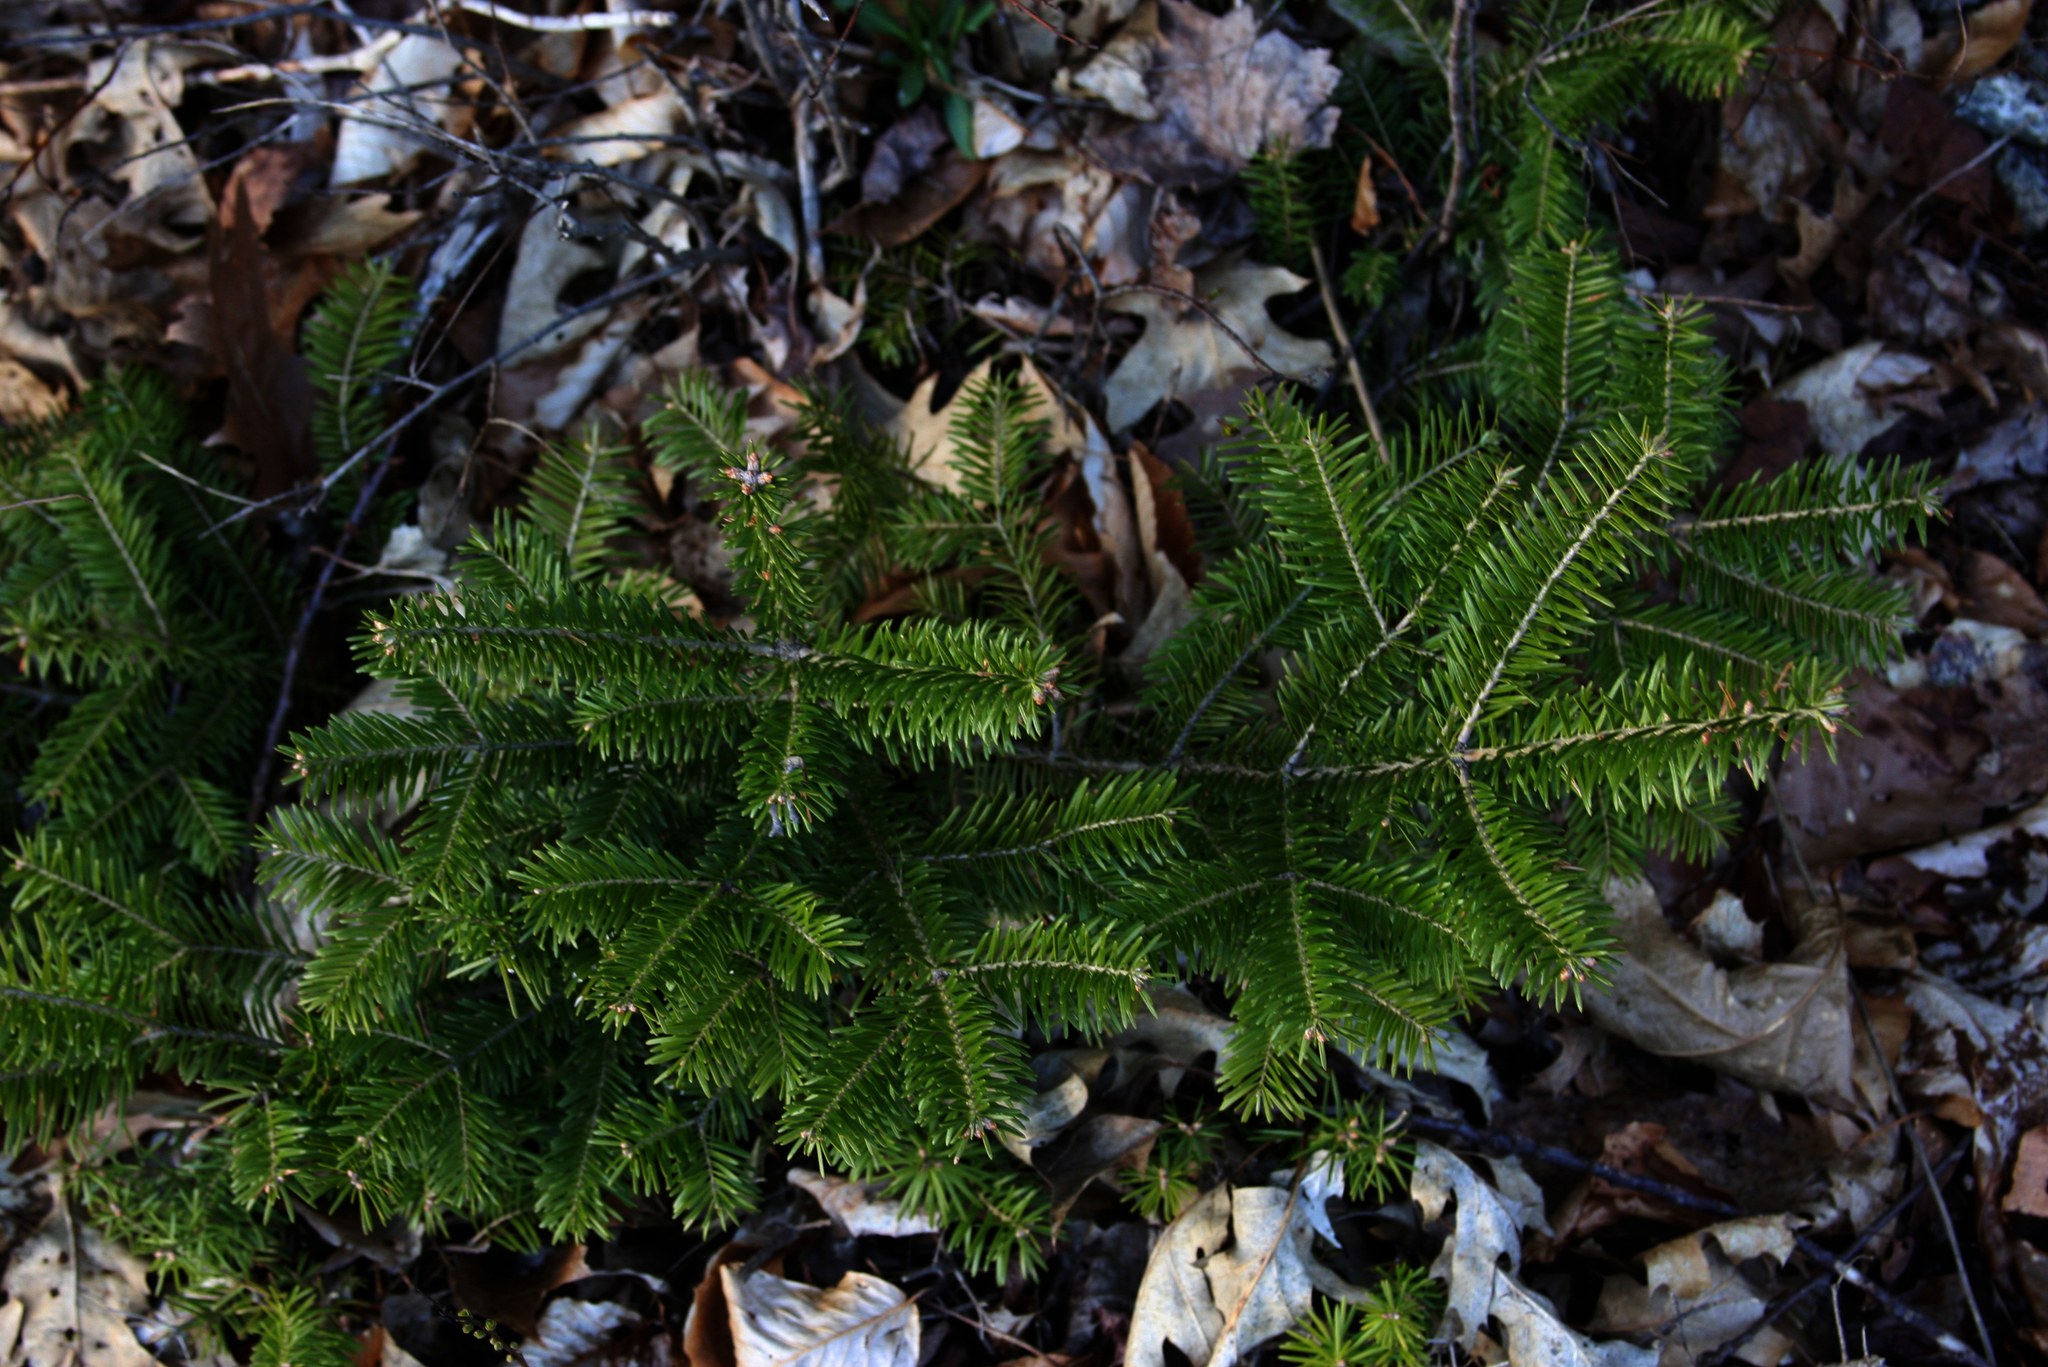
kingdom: Plantae
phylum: Tracheophyta
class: Pinopsida
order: Pinales
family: Pinaceae
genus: Abies
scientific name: Abies balsamea
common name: Balsam fir
